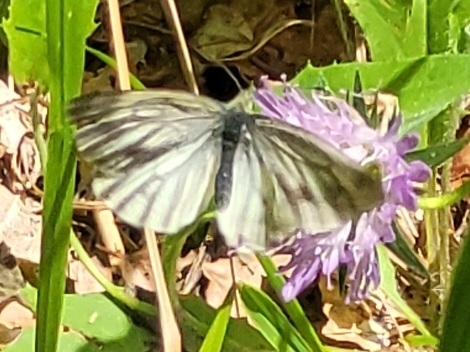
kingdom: Animalia
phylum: Arthropoda
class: Insecta
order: Lepidoptera
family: Pieridae
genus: Pieris
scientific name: Pieris bryoniae
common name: Mountain green-veined white
